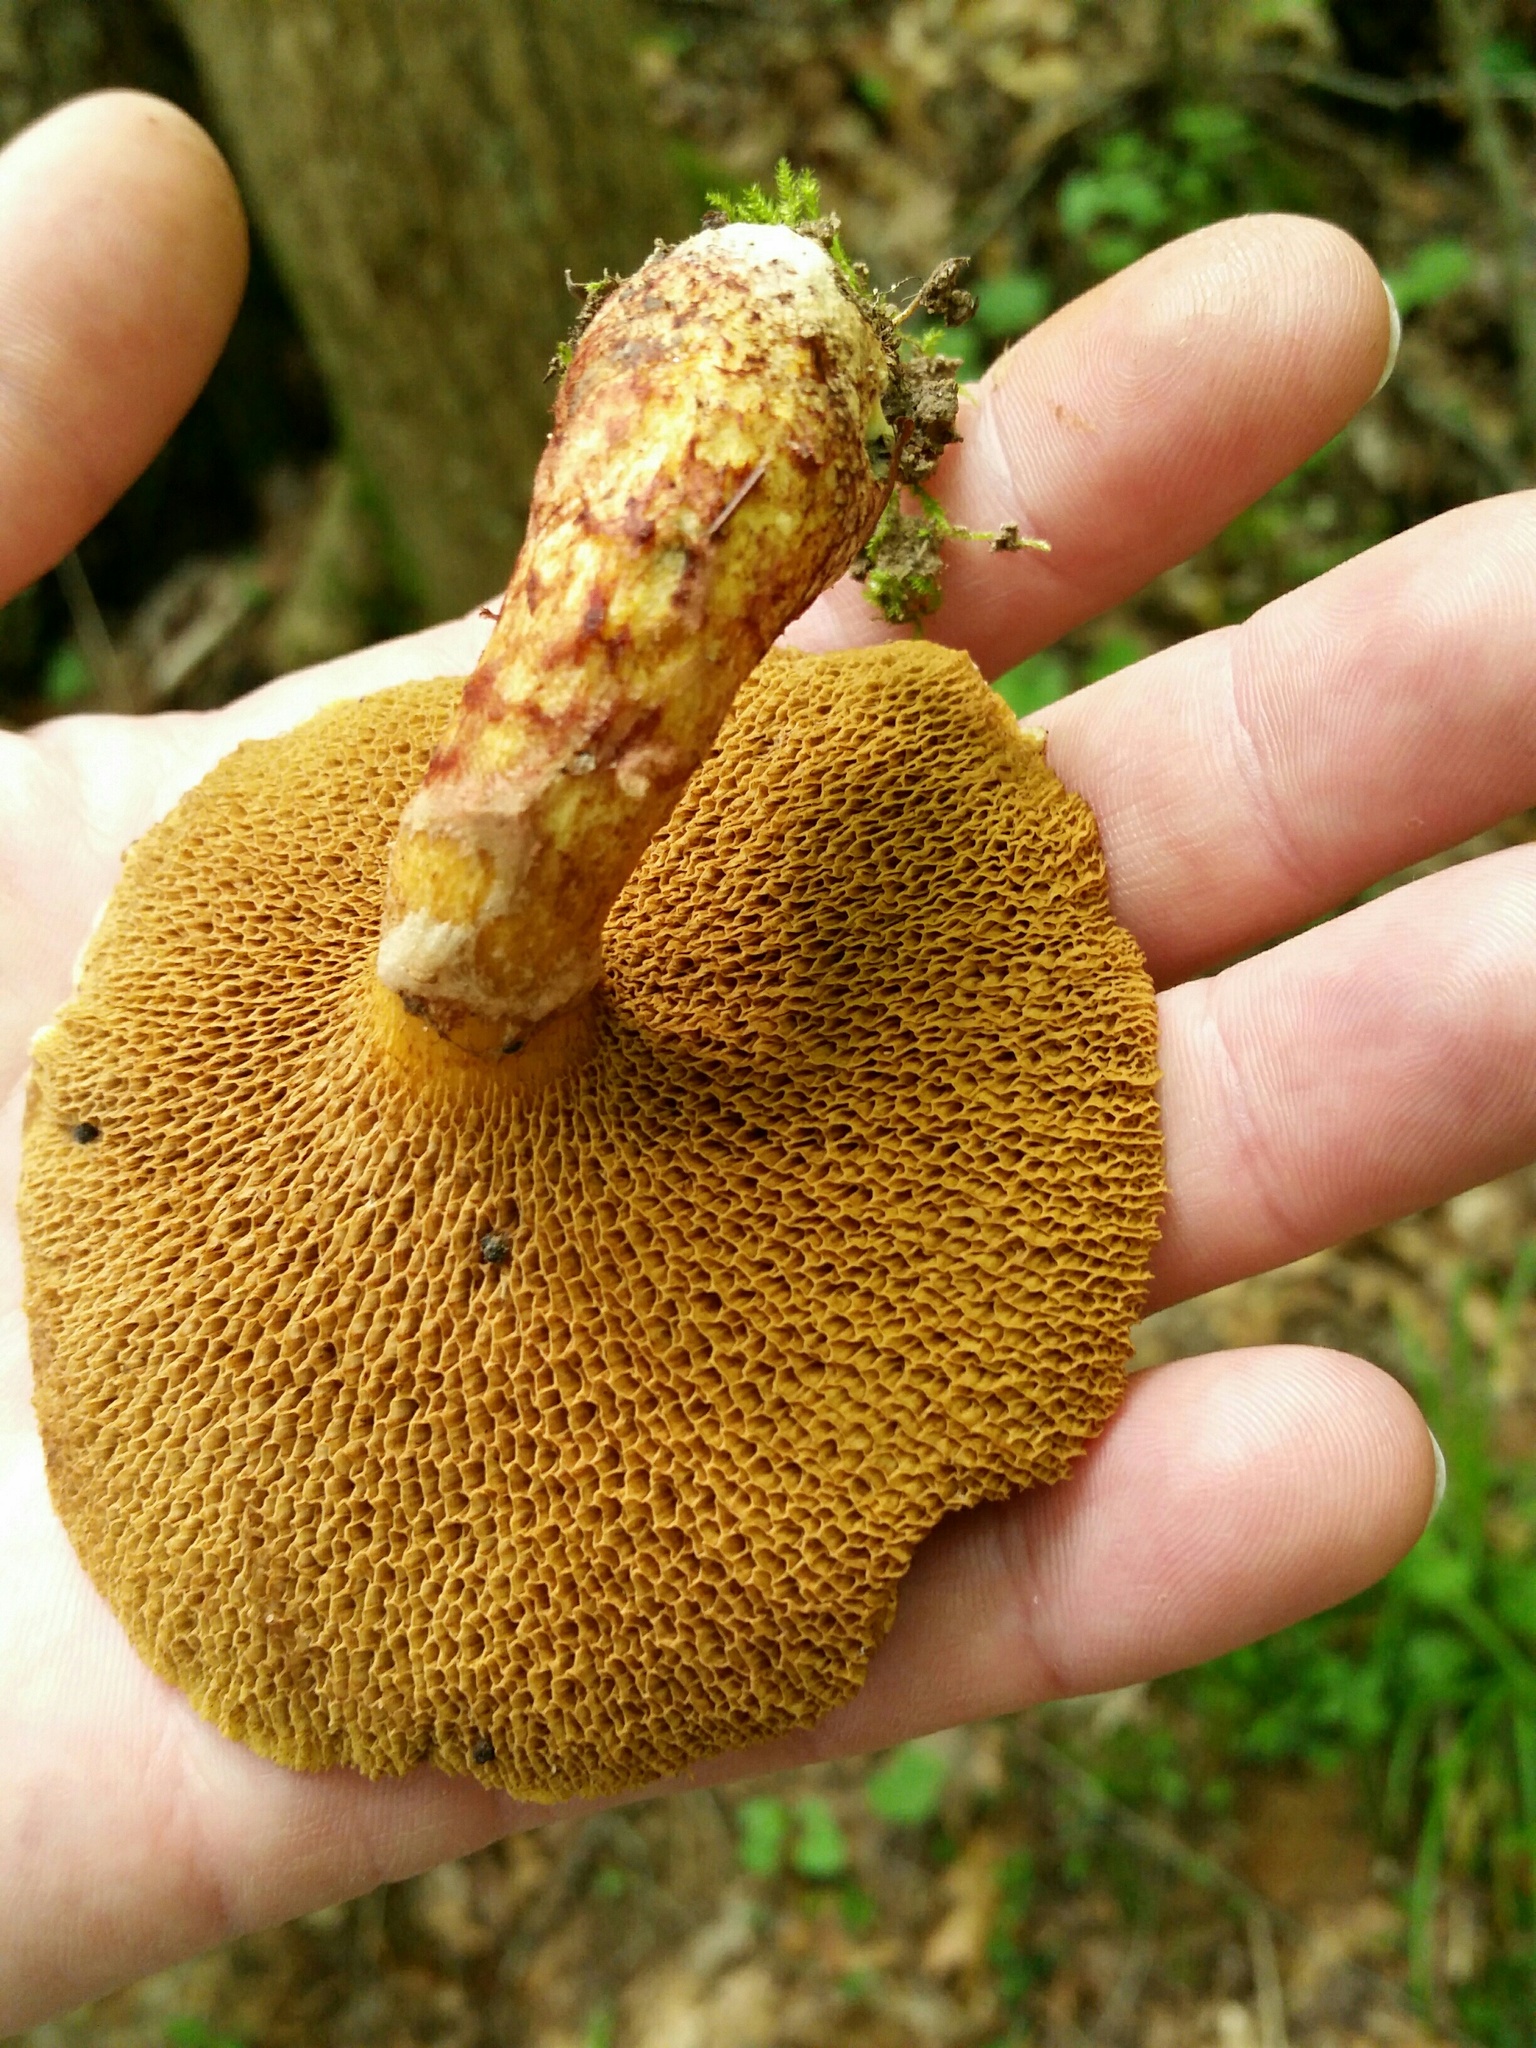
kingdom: Fungi
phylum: Basidiomycota
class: Agaricomycetes
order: Boletales
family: Suillaceae
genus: Suillus
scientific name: Suillus spraguei
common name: Painted suillus
